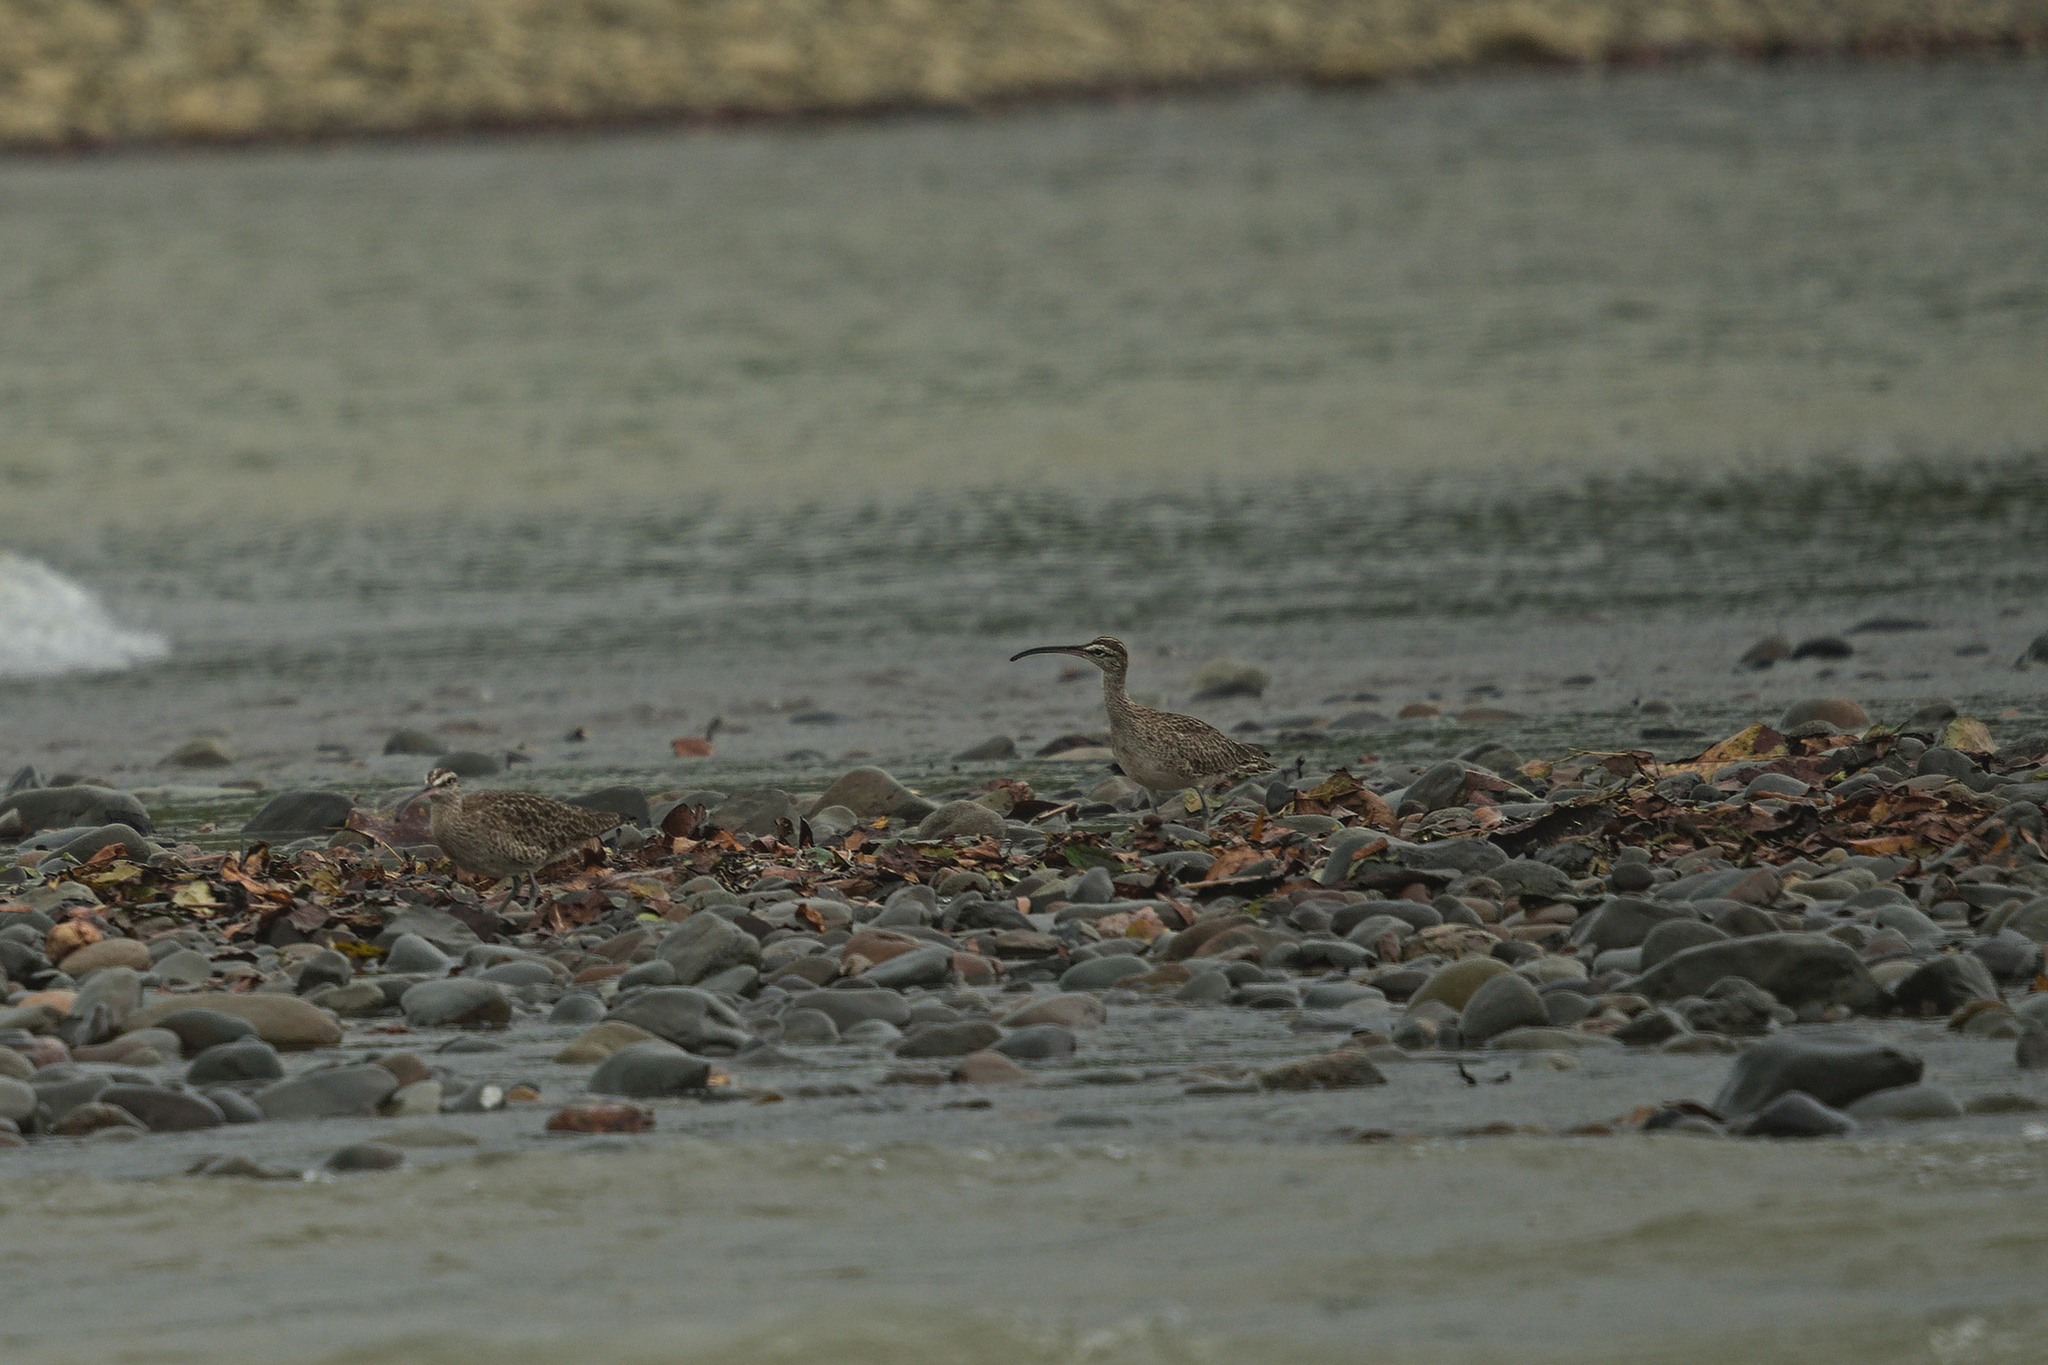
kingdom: Animalia
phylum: Chordata
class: Aves
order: Charadriiformes
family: Scolopacidae
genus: Numenius
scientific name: Numenius phaeopus
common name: Whimbrel
